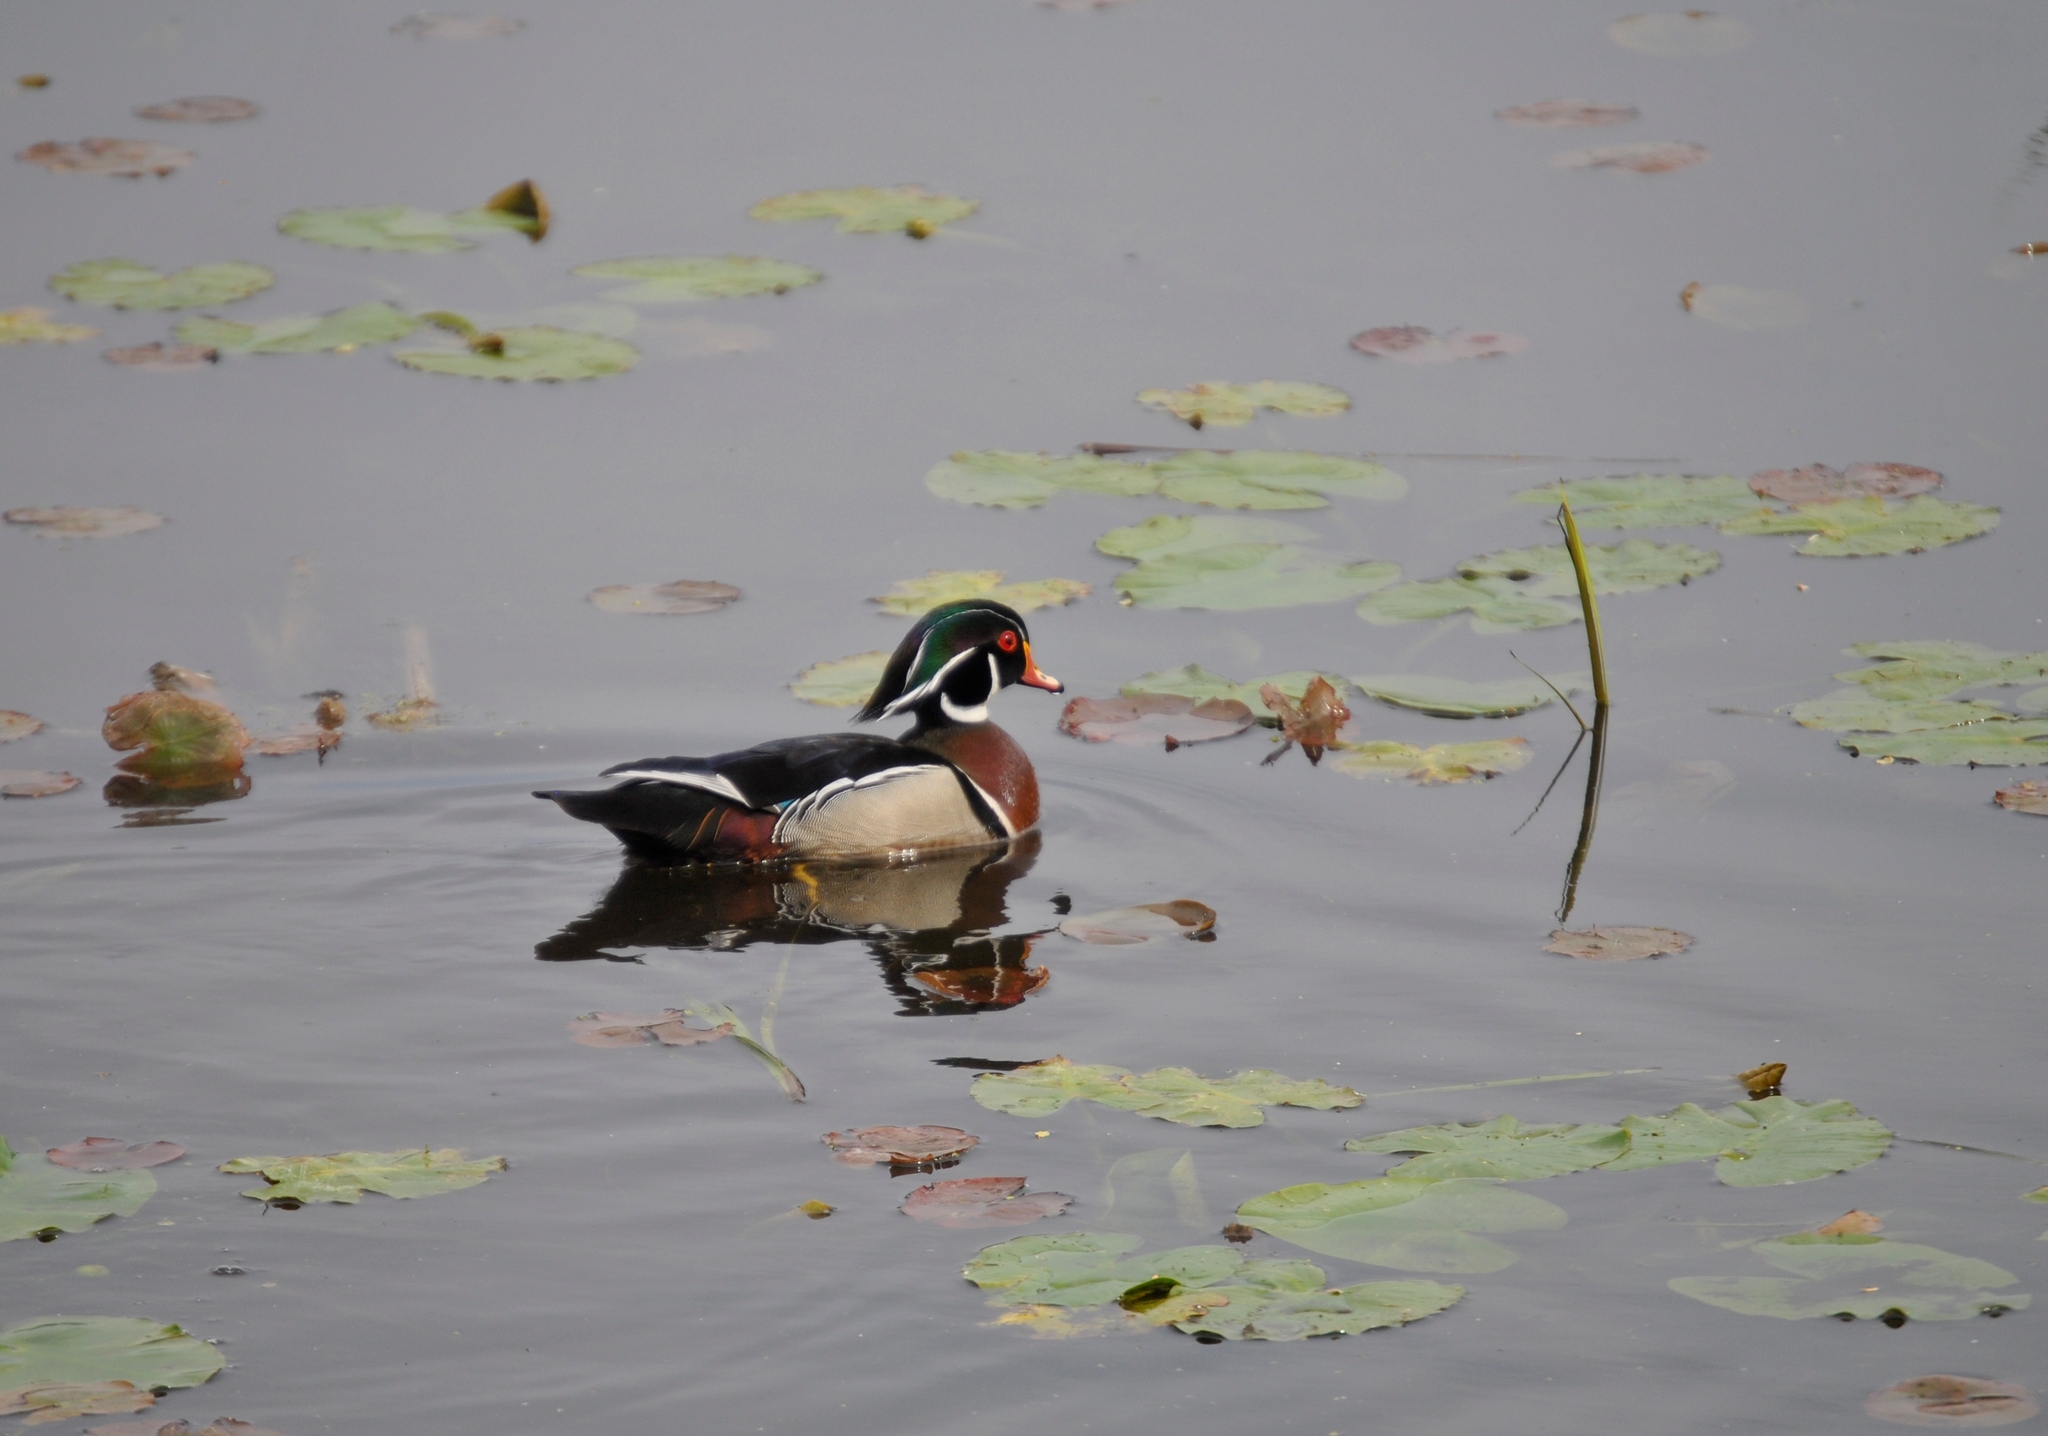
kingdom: Animalia
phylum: Chordata
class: Aves
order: Anseriformes
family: Anatidae
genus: Aix
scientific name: Aix sponsa
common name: Wood duck
